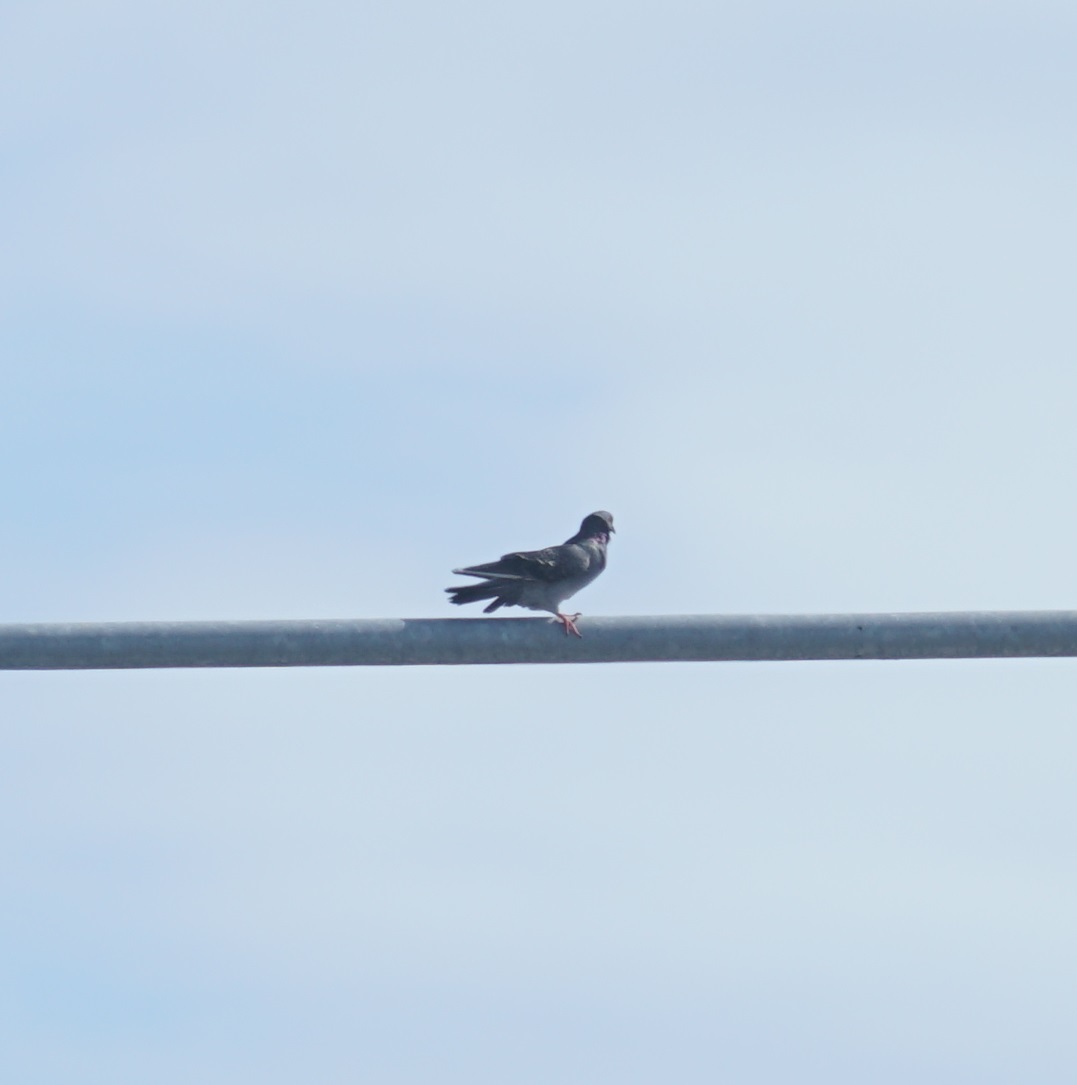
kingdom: Animalia
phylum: Chordata
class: Aves
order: Columbiformes
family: Columbidae
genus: Columba
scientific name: Columba livia
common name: Rock pigeon
